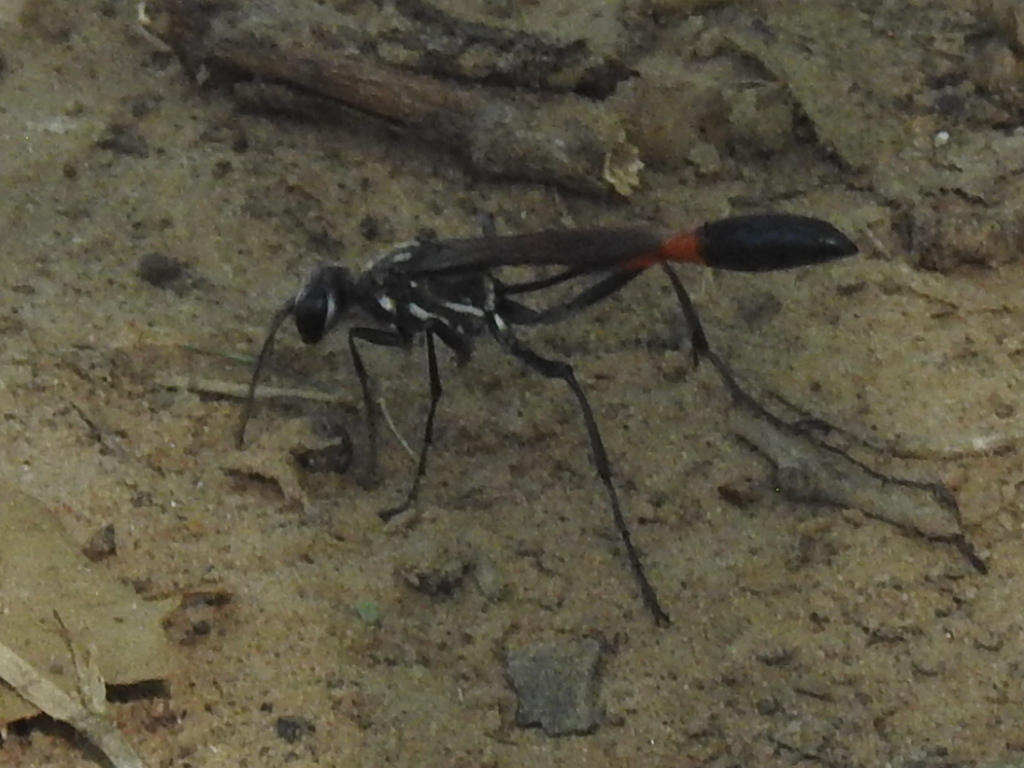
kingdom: Animalia
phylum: Arthropoda
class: Insecta
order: Hymenoptera
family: Sphecidae
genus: Ammophila
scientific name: Ammophila procera
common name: Common thread-waisted wasp
